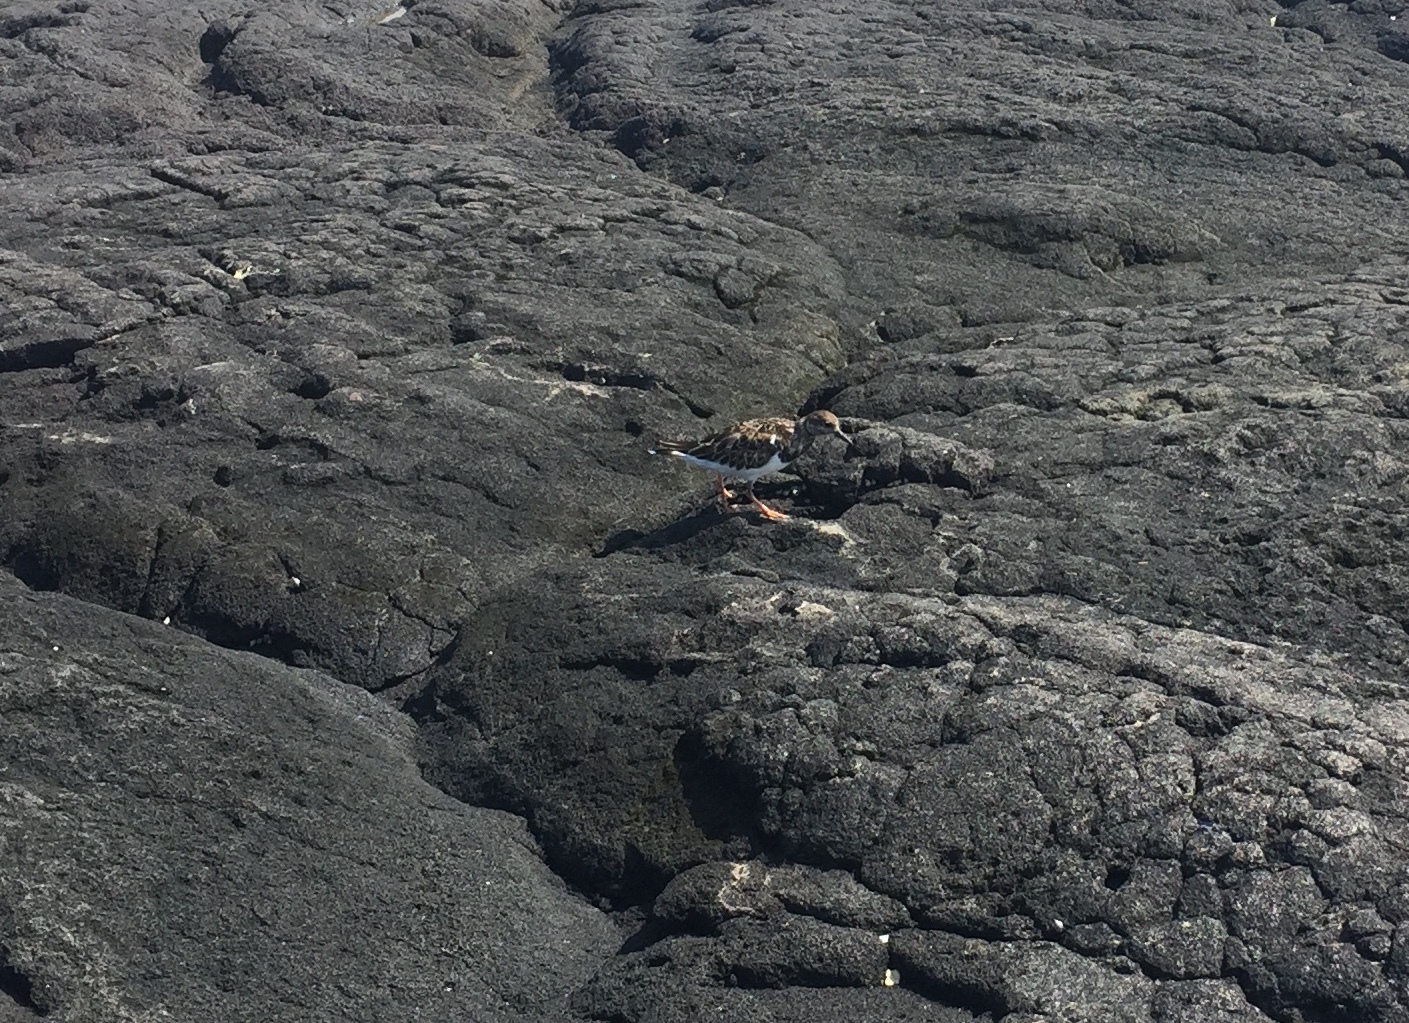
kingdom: Animalia
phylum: Chordata
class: Aves
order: Charadriiformes
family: Scolopacidae
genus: Arenaria
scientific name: Arenaria interpres
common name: Ruddy turnstone
